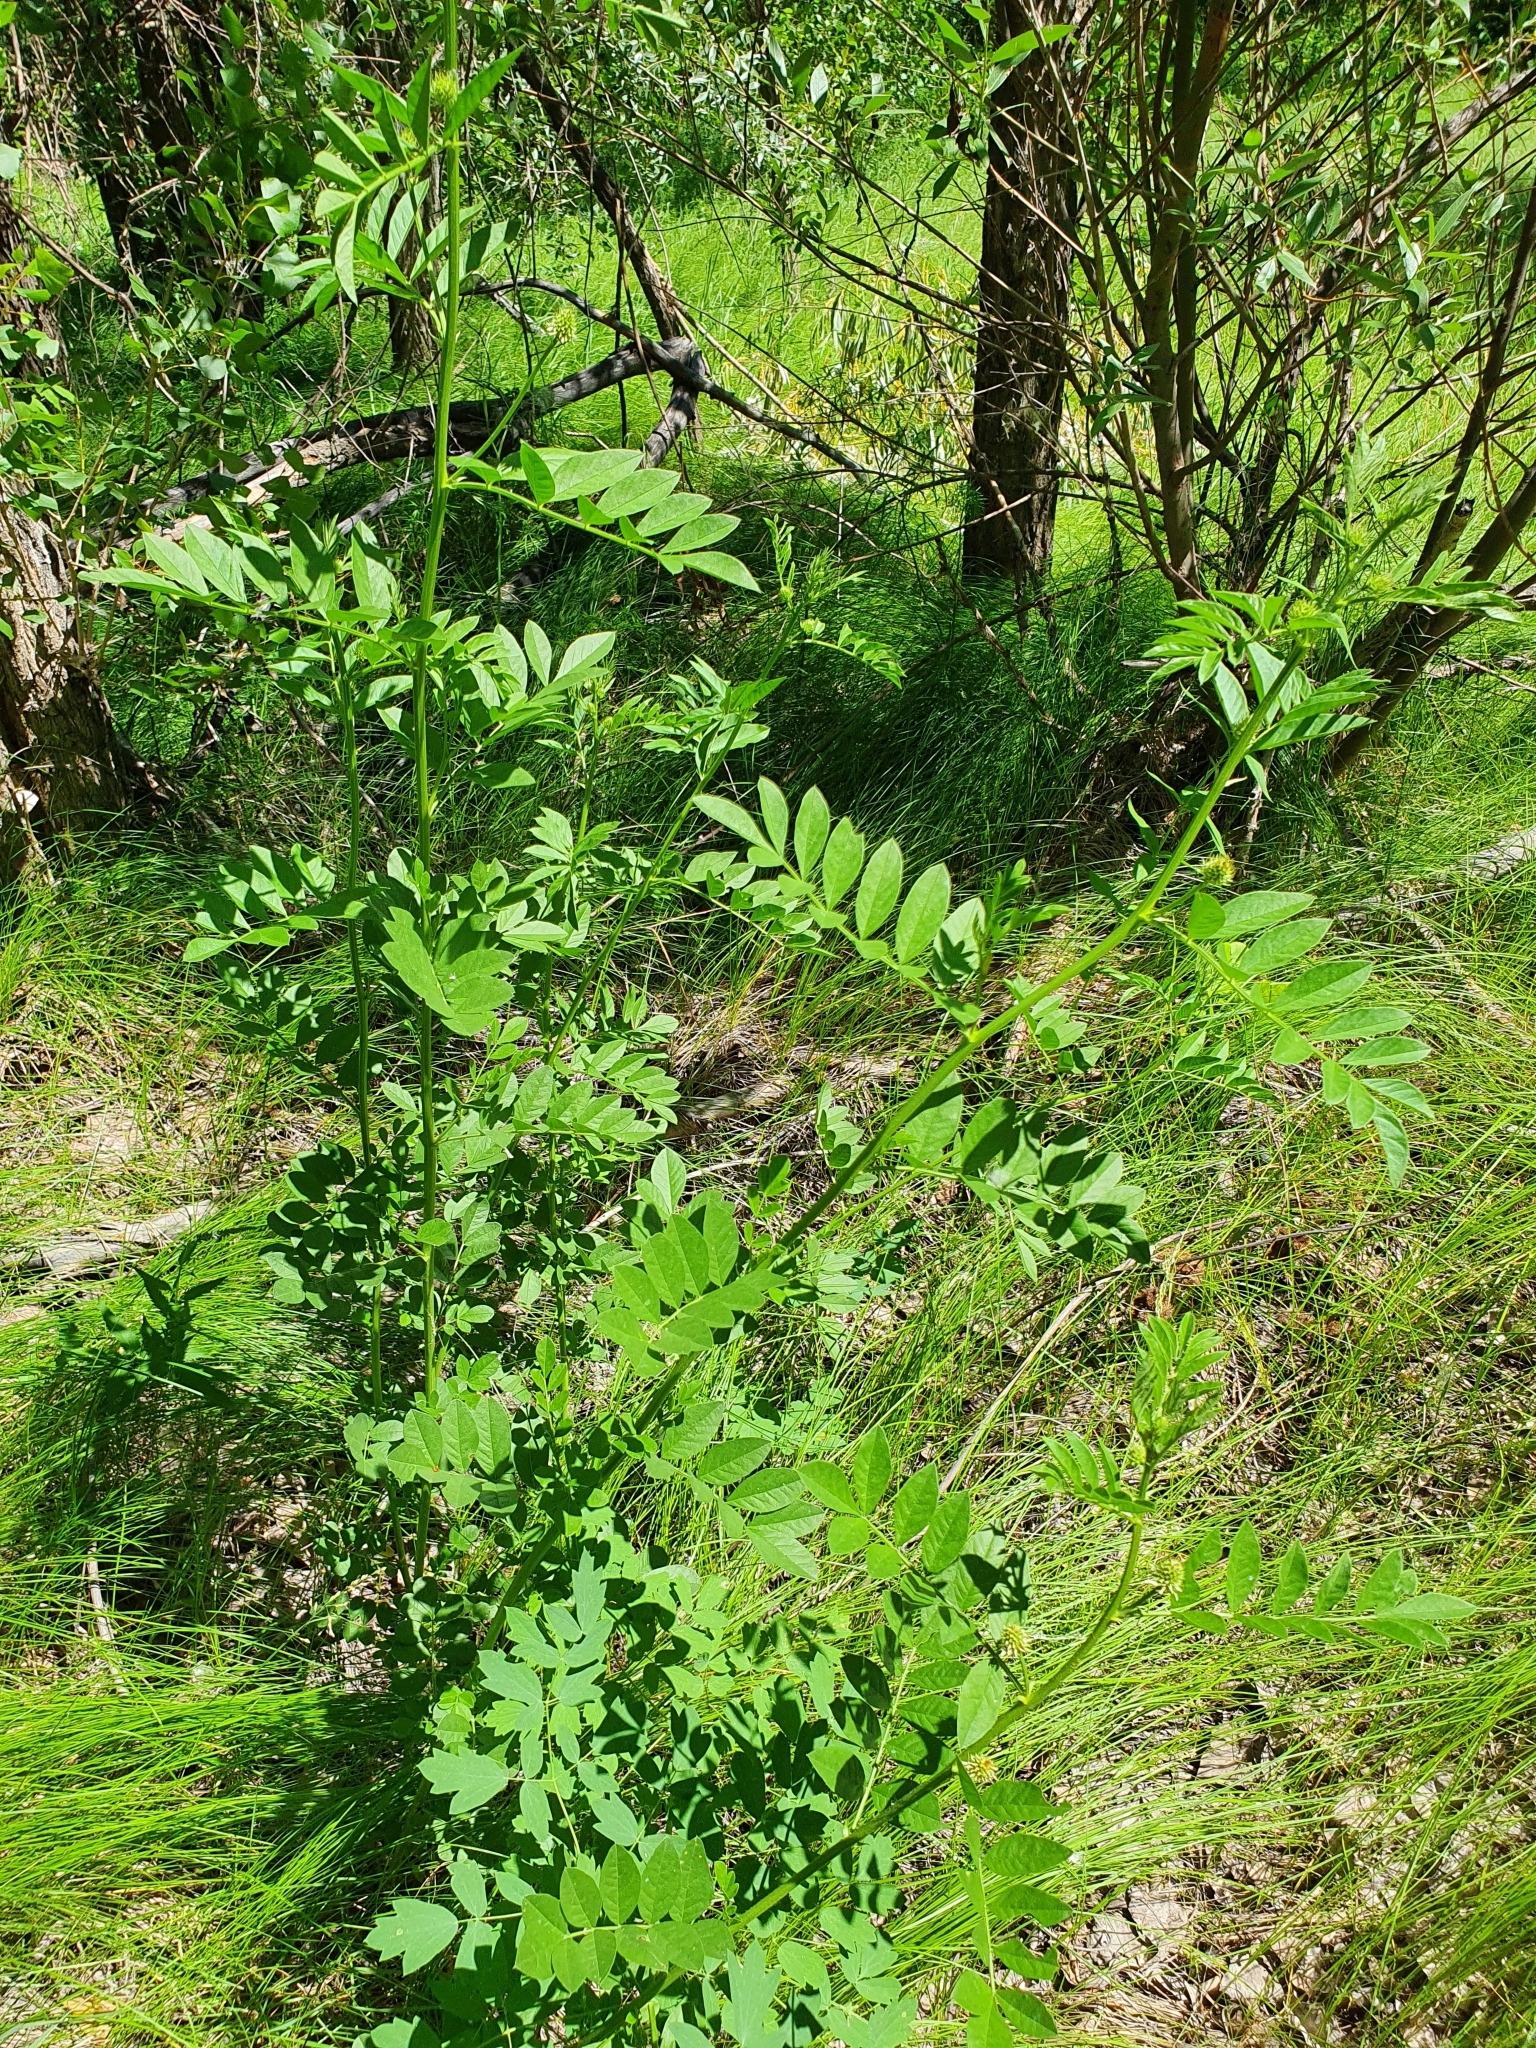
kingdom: Plantae
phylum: Tracheophyta
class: Magnoliopsida
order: Fabales
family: Fabaceae
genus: Glycyrrhiza
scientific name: Glycyrrhiza echinata
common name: German liquorice
